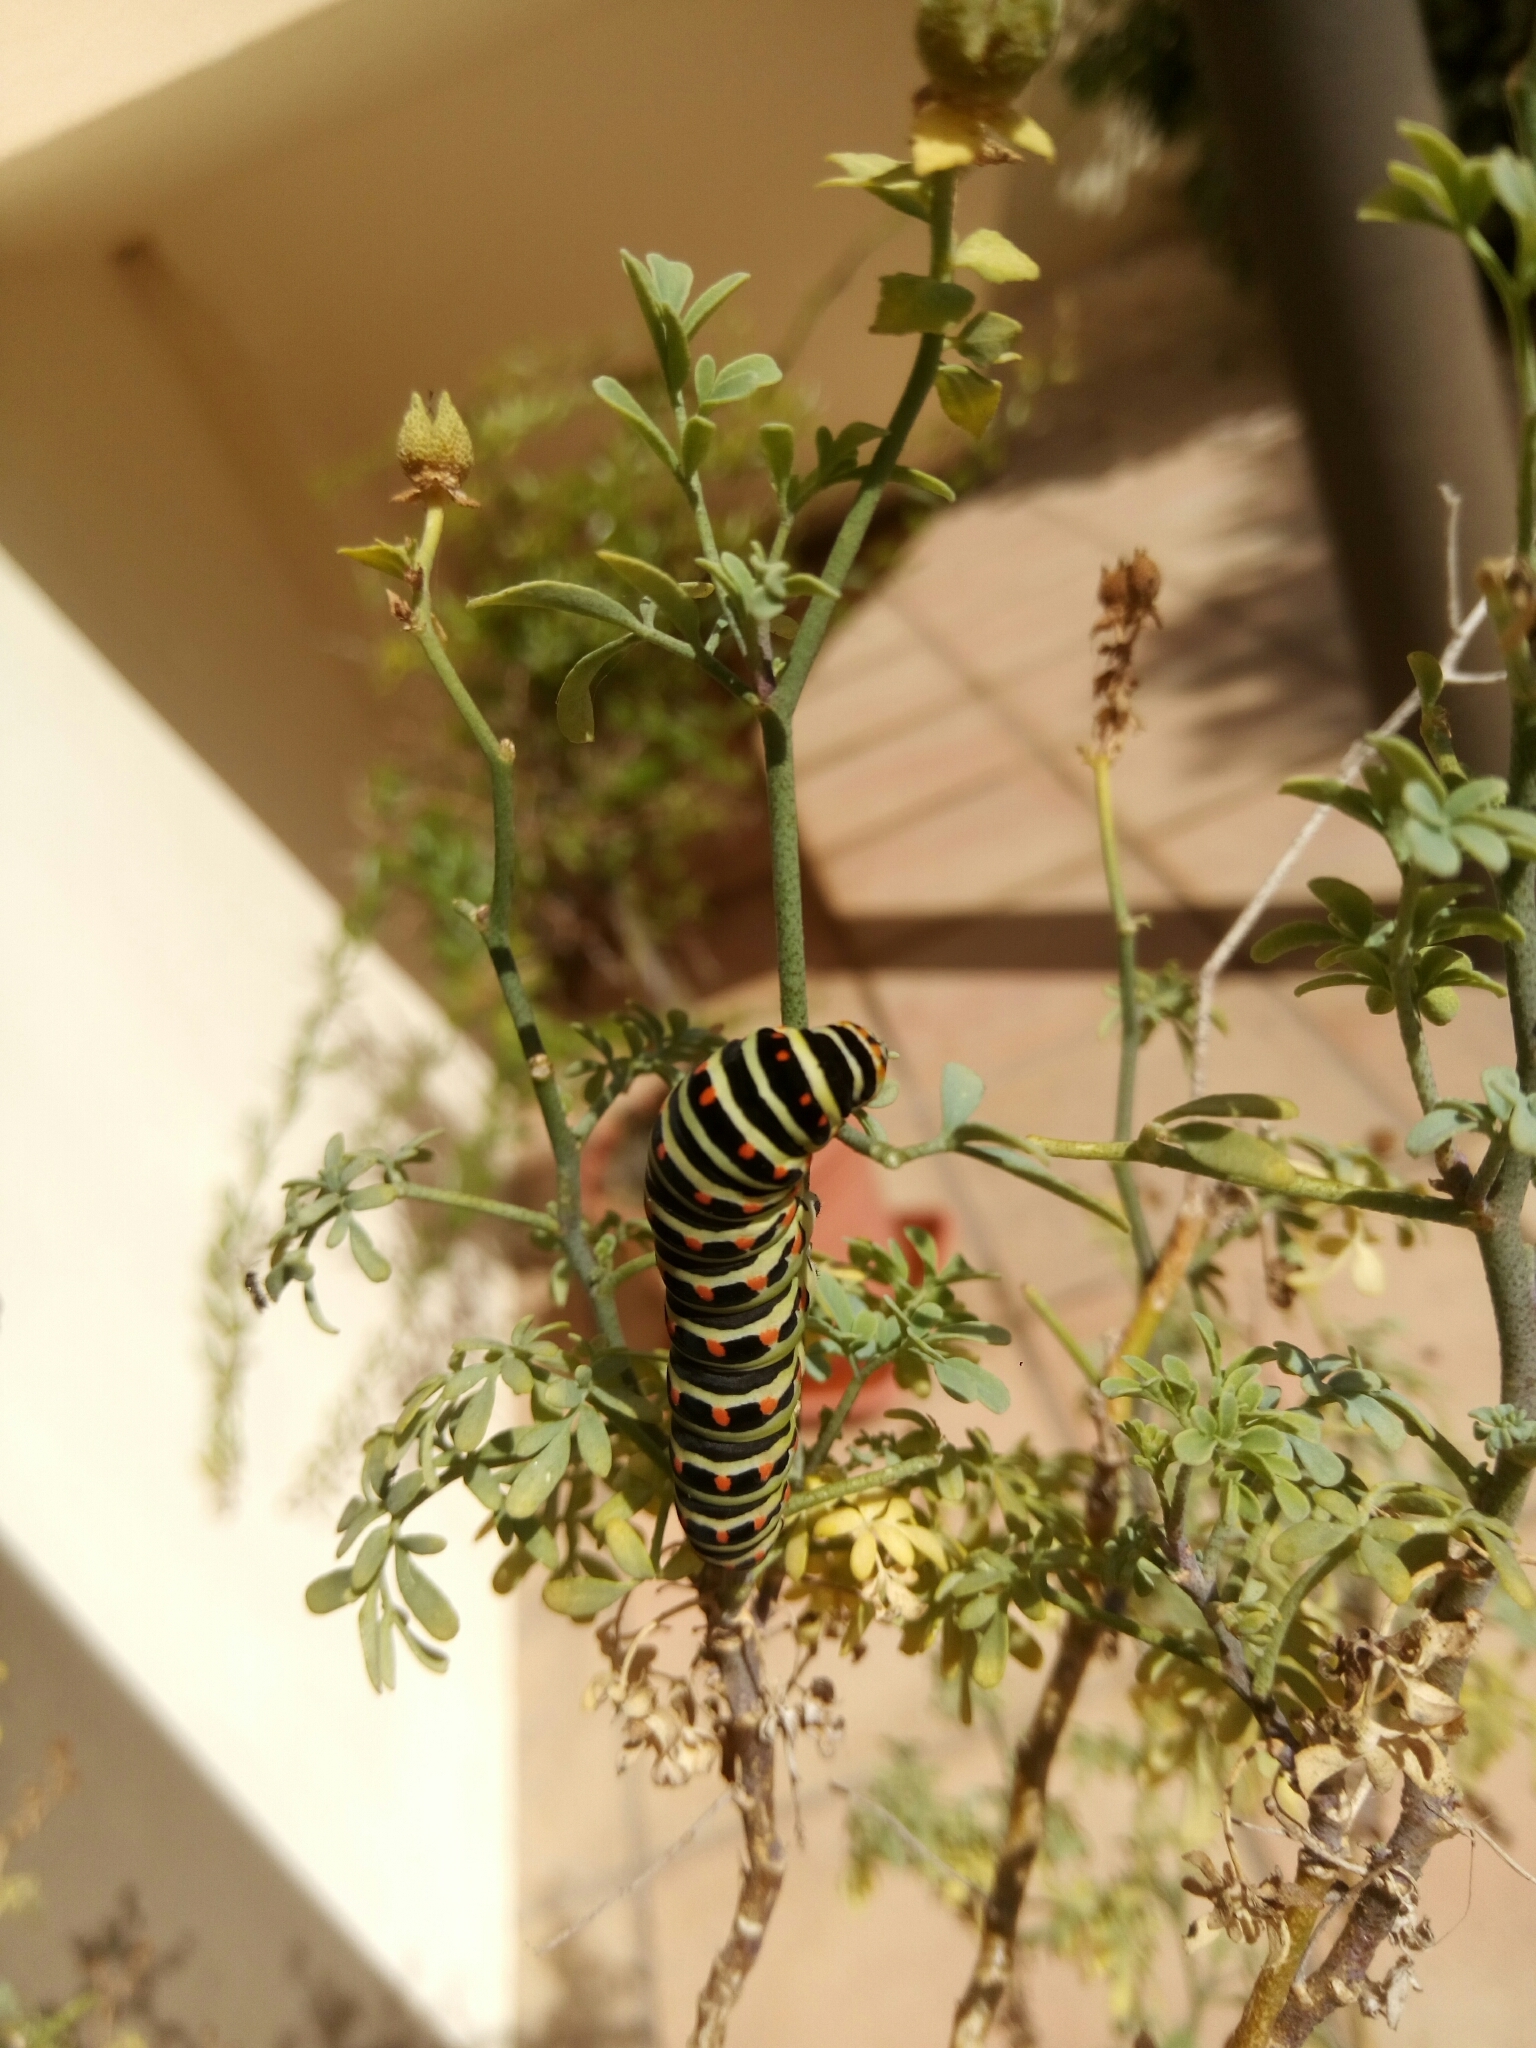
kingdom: Animalia
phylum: Arthropoda
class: Insecta
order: Lepidoptera
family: Papilionidae
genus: Papilio
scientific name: Papilio machaon
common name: Swallowtail
